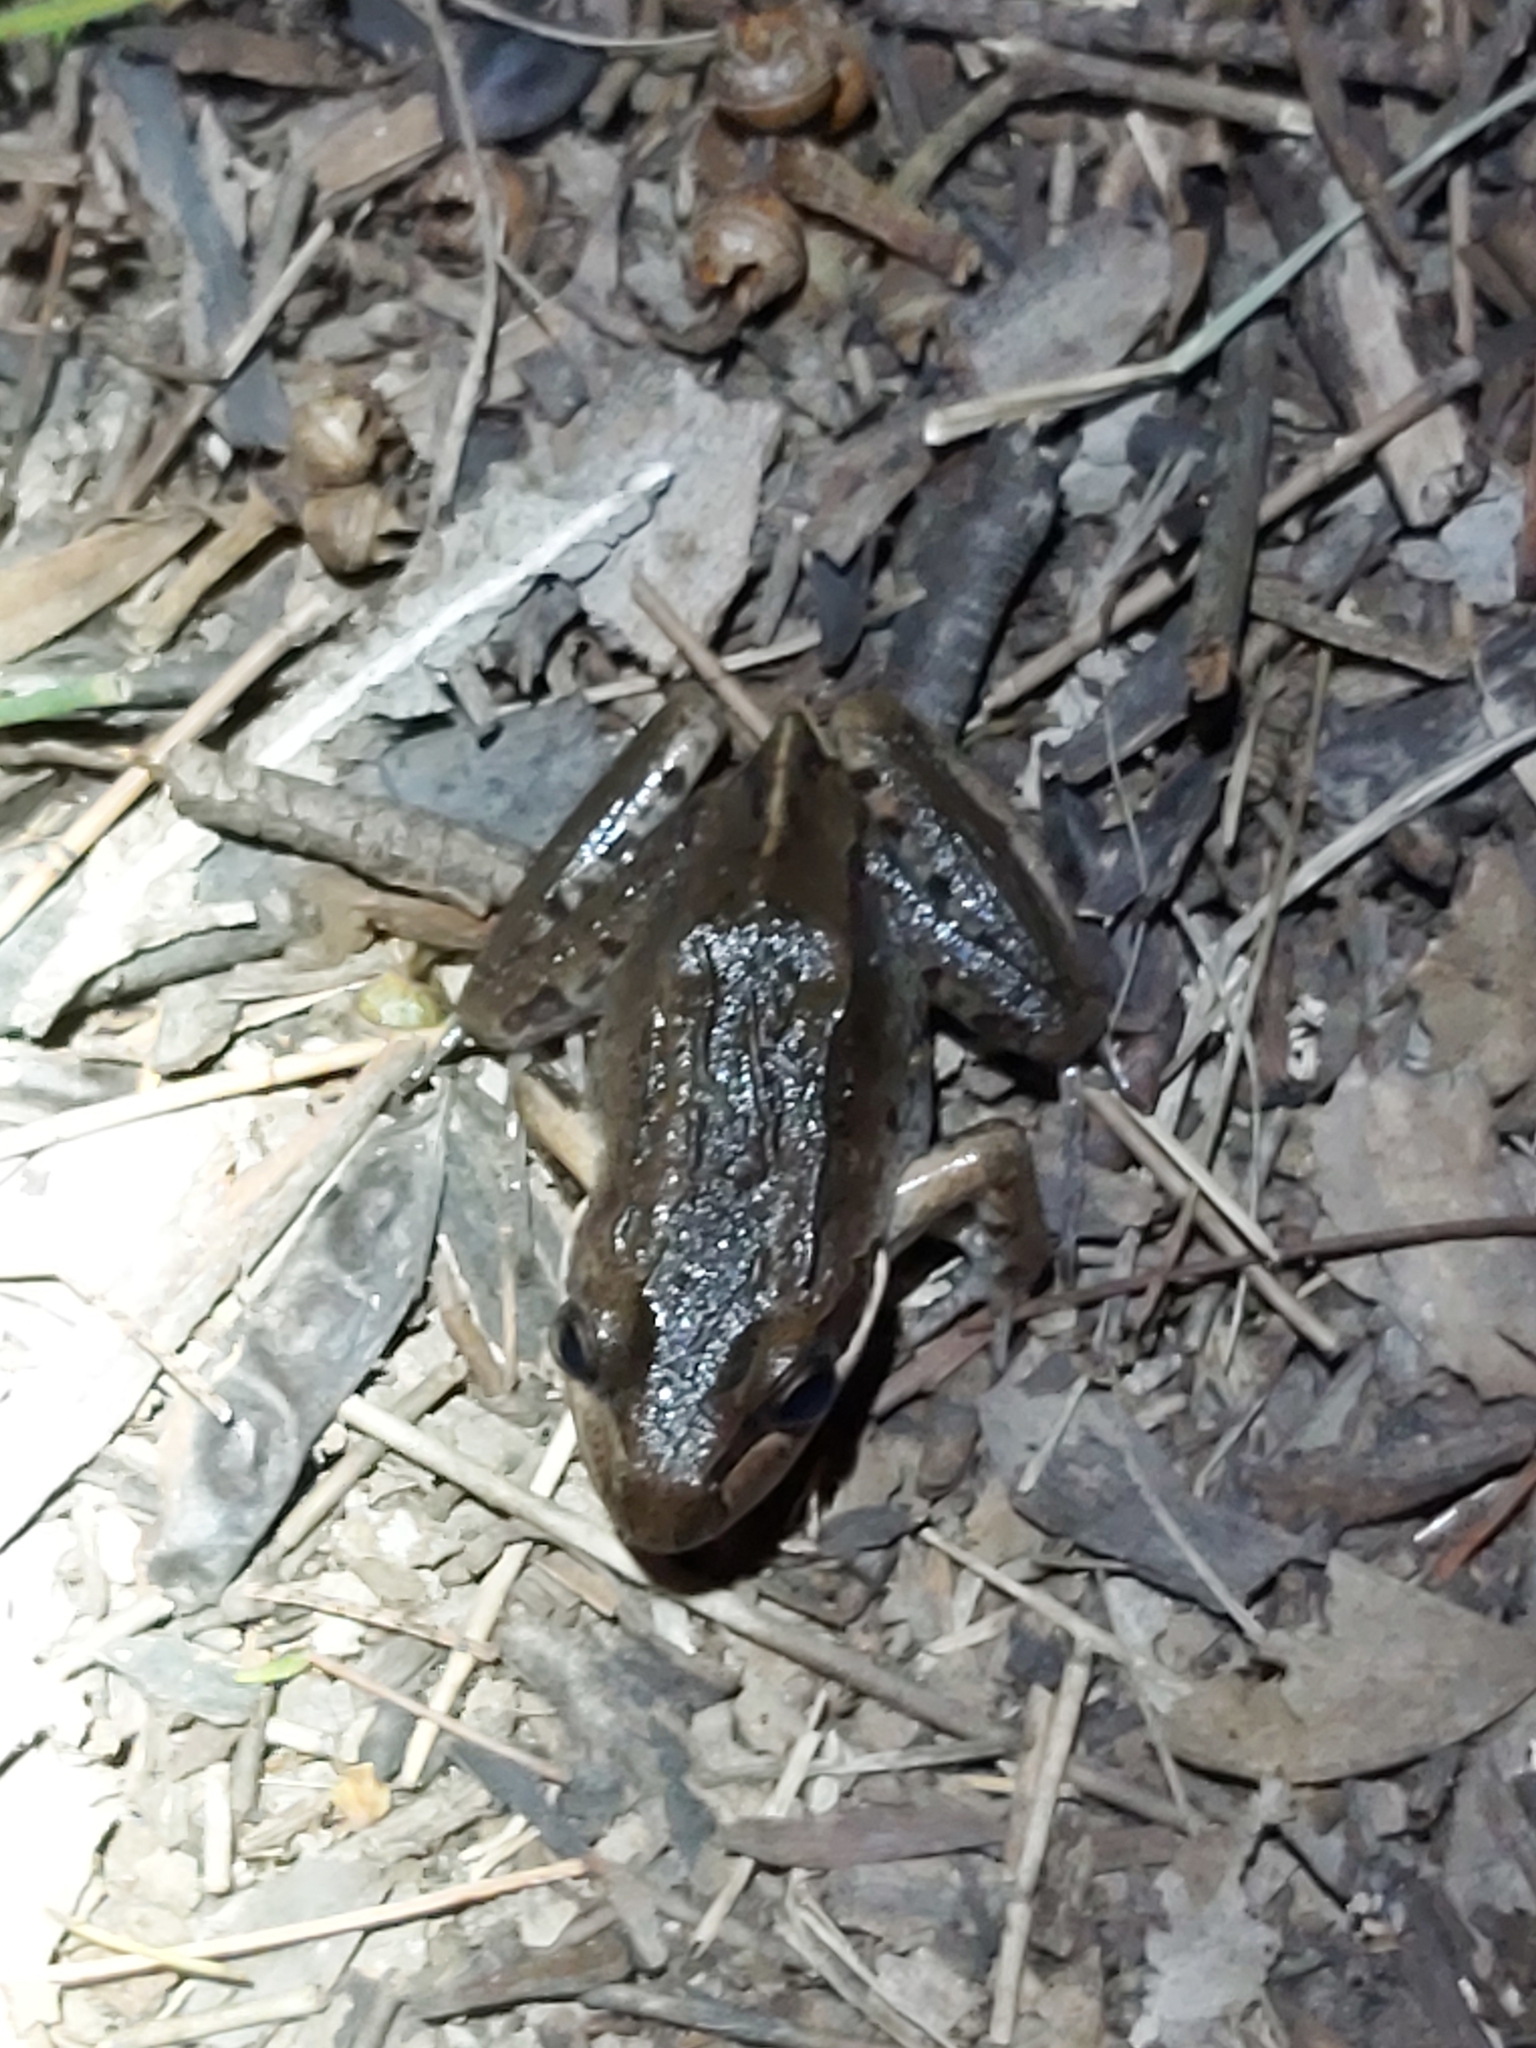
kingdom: Animalia
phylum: Chordata
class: Amphibia
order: Anura
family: Limnodynastidae
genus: Limnodynastes
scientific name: Limnodynastes peronii
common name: Brown frog
